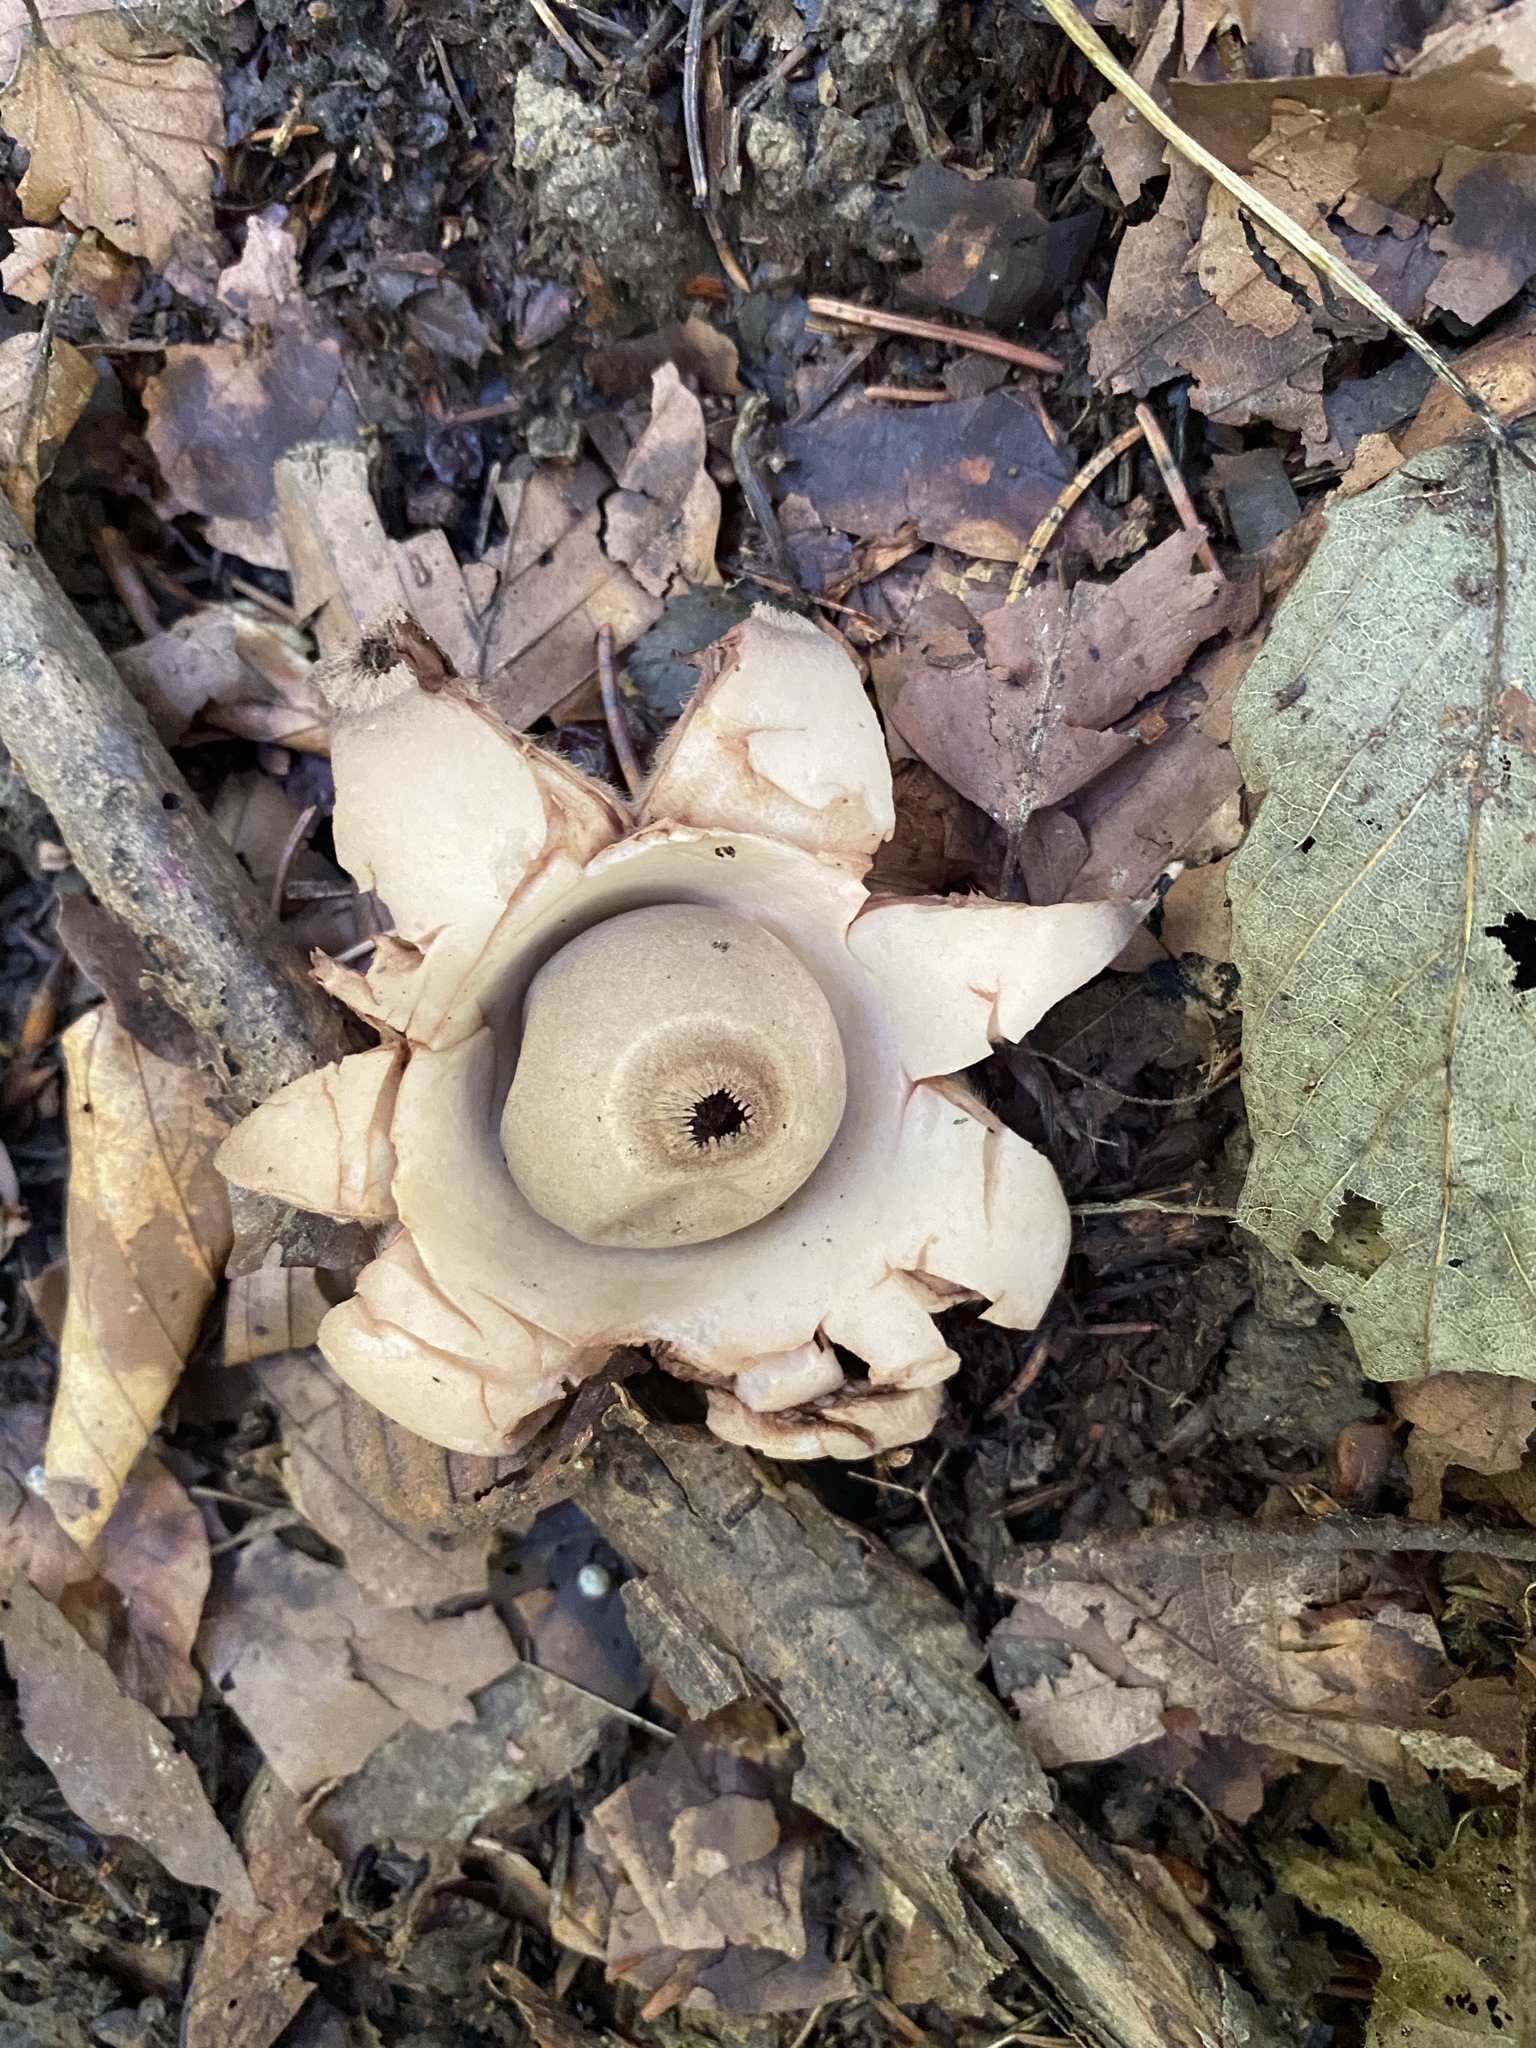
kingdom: Fungi
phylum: Basidiomycota
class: Agaricomycetes
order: Geastrales
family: Geastraceae
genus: Geastrum
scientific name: Geastrum triplex
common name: Collared earthstar
